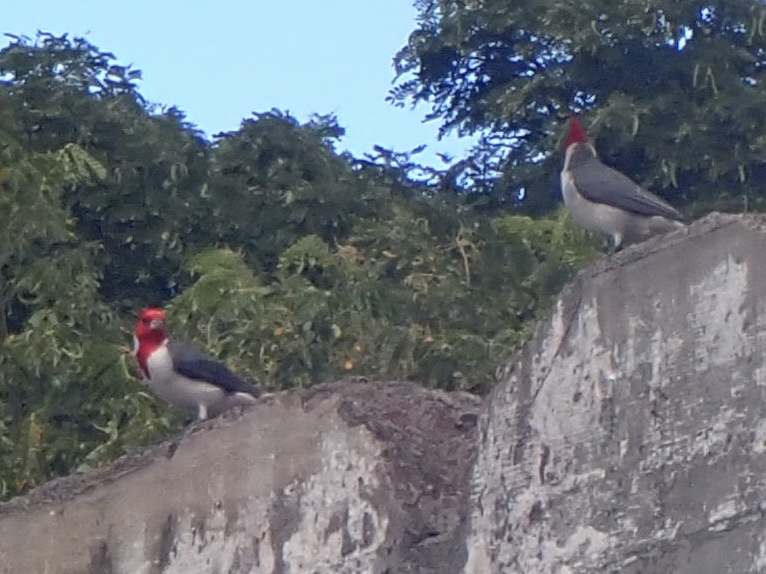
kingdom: Animalia
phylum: Chordata
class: Aves
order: Passeriformes
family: Thraupidae
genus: Paroaria
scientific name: Paroaria coronata
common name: Red-crested cardinal
